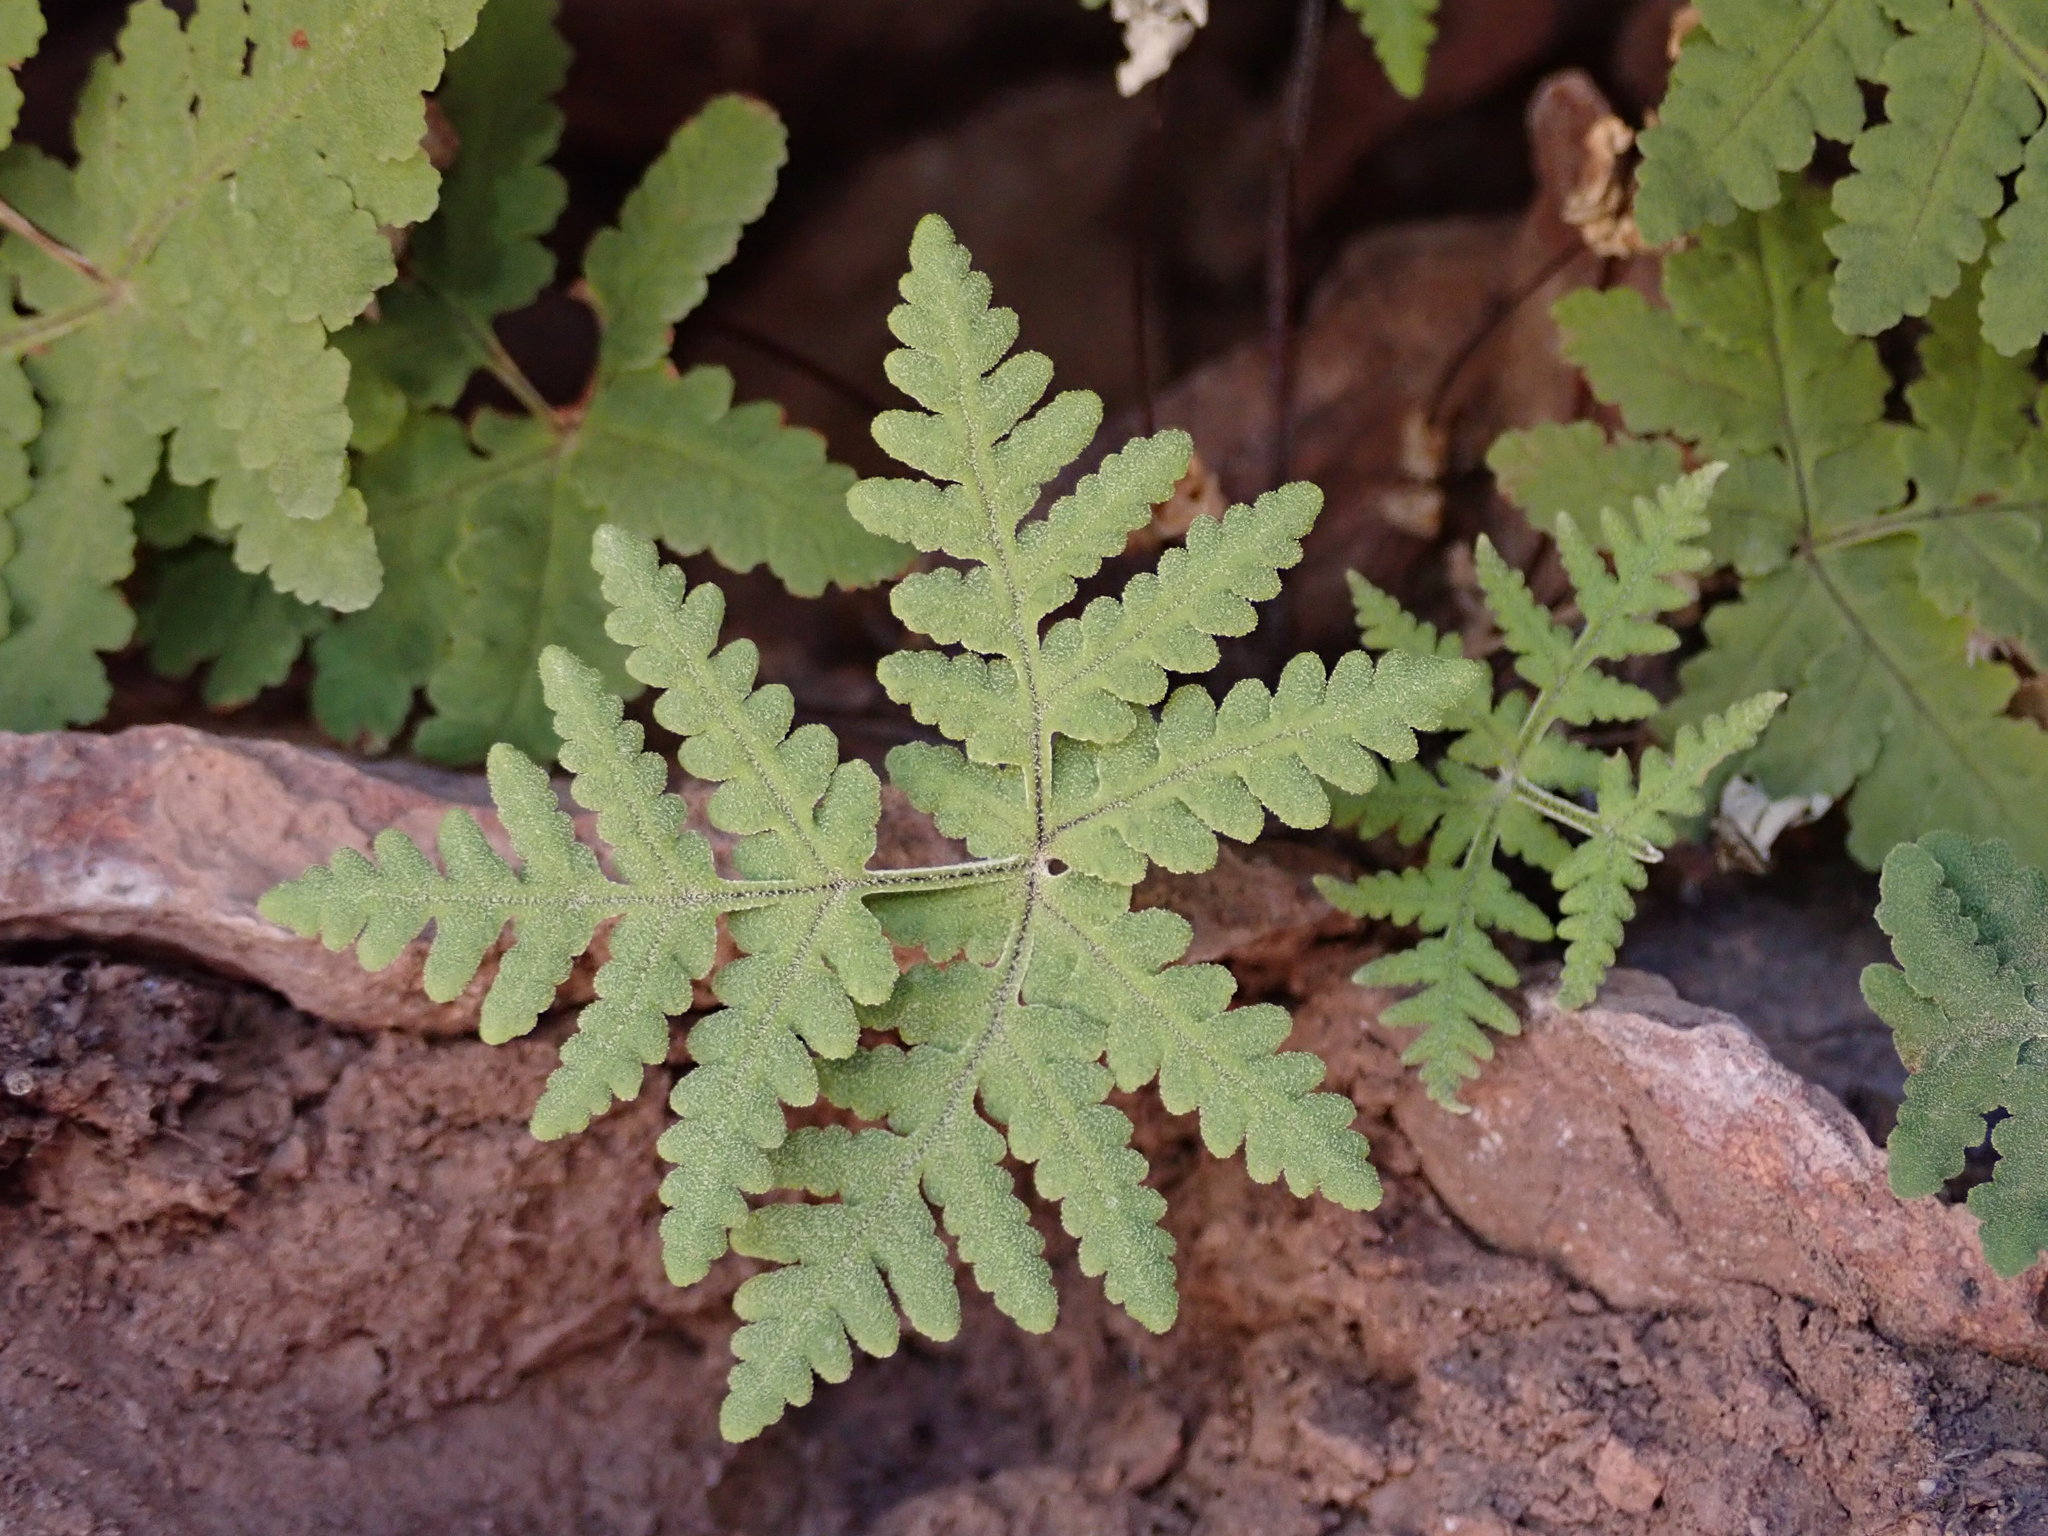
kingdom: Plantae
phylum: Tracheophyta
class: Polypodiopsida
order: Polypodiales
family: Pteridaceae
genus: Pentagramma
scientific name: Pentagramma maxonii
